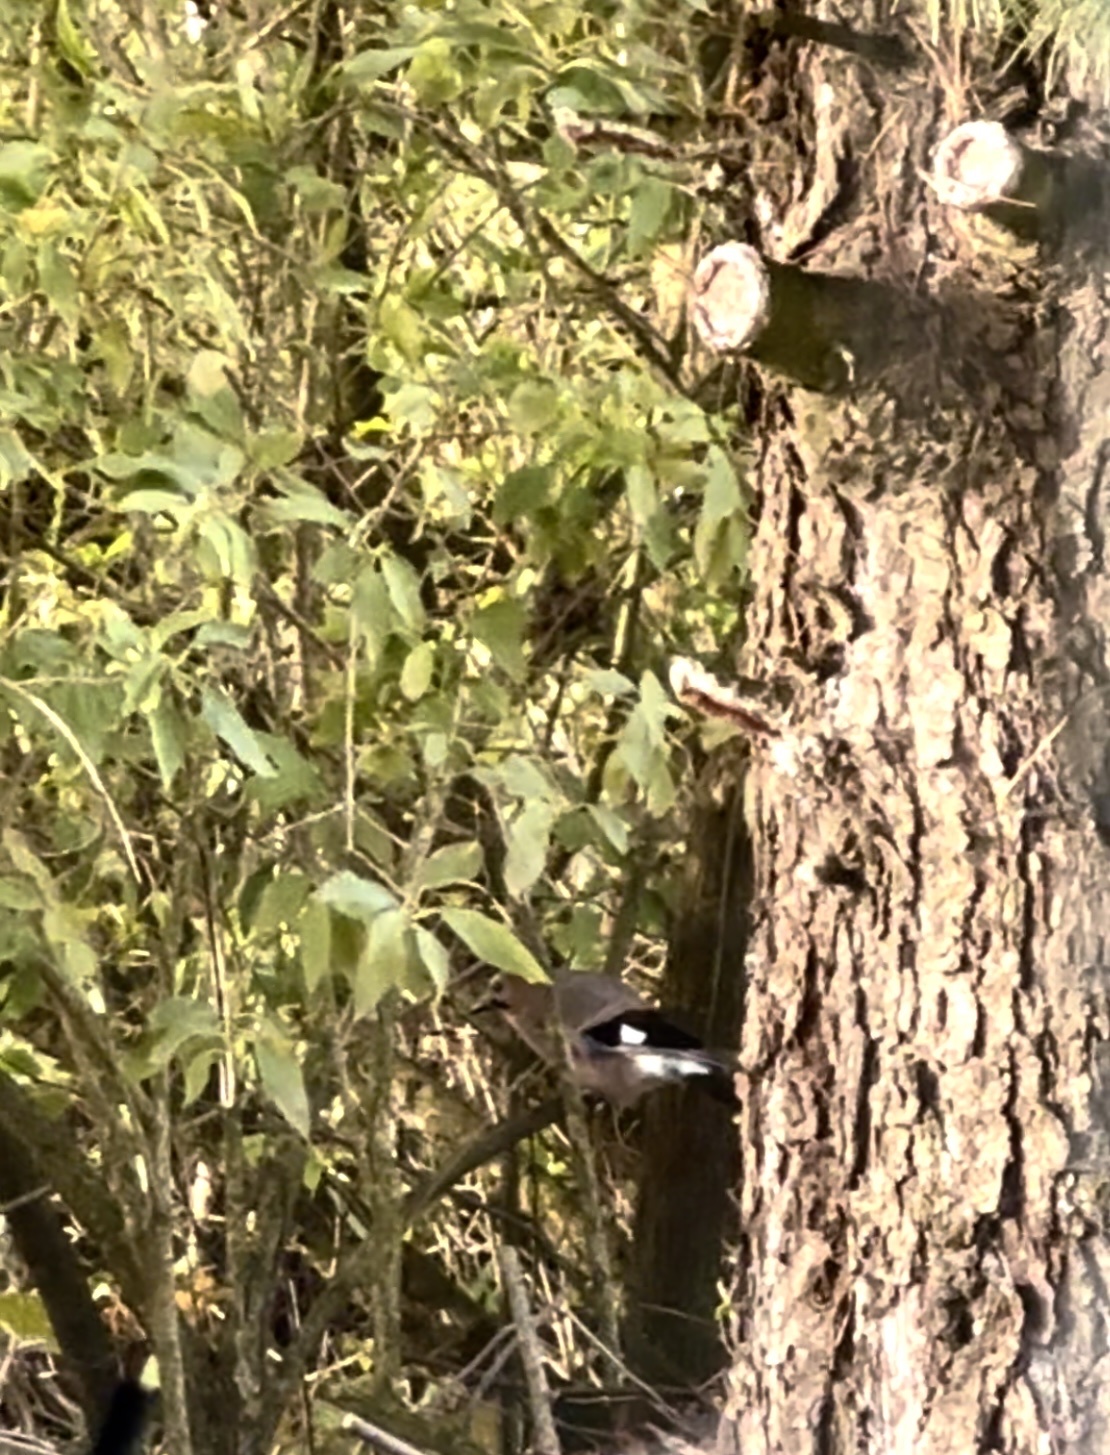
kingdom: Animalia
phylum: Chordata
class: Aves
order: Passeriformes
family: Corvidae
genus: Garrulus
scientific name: Garrulus glandarius
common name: Eurasian jay
